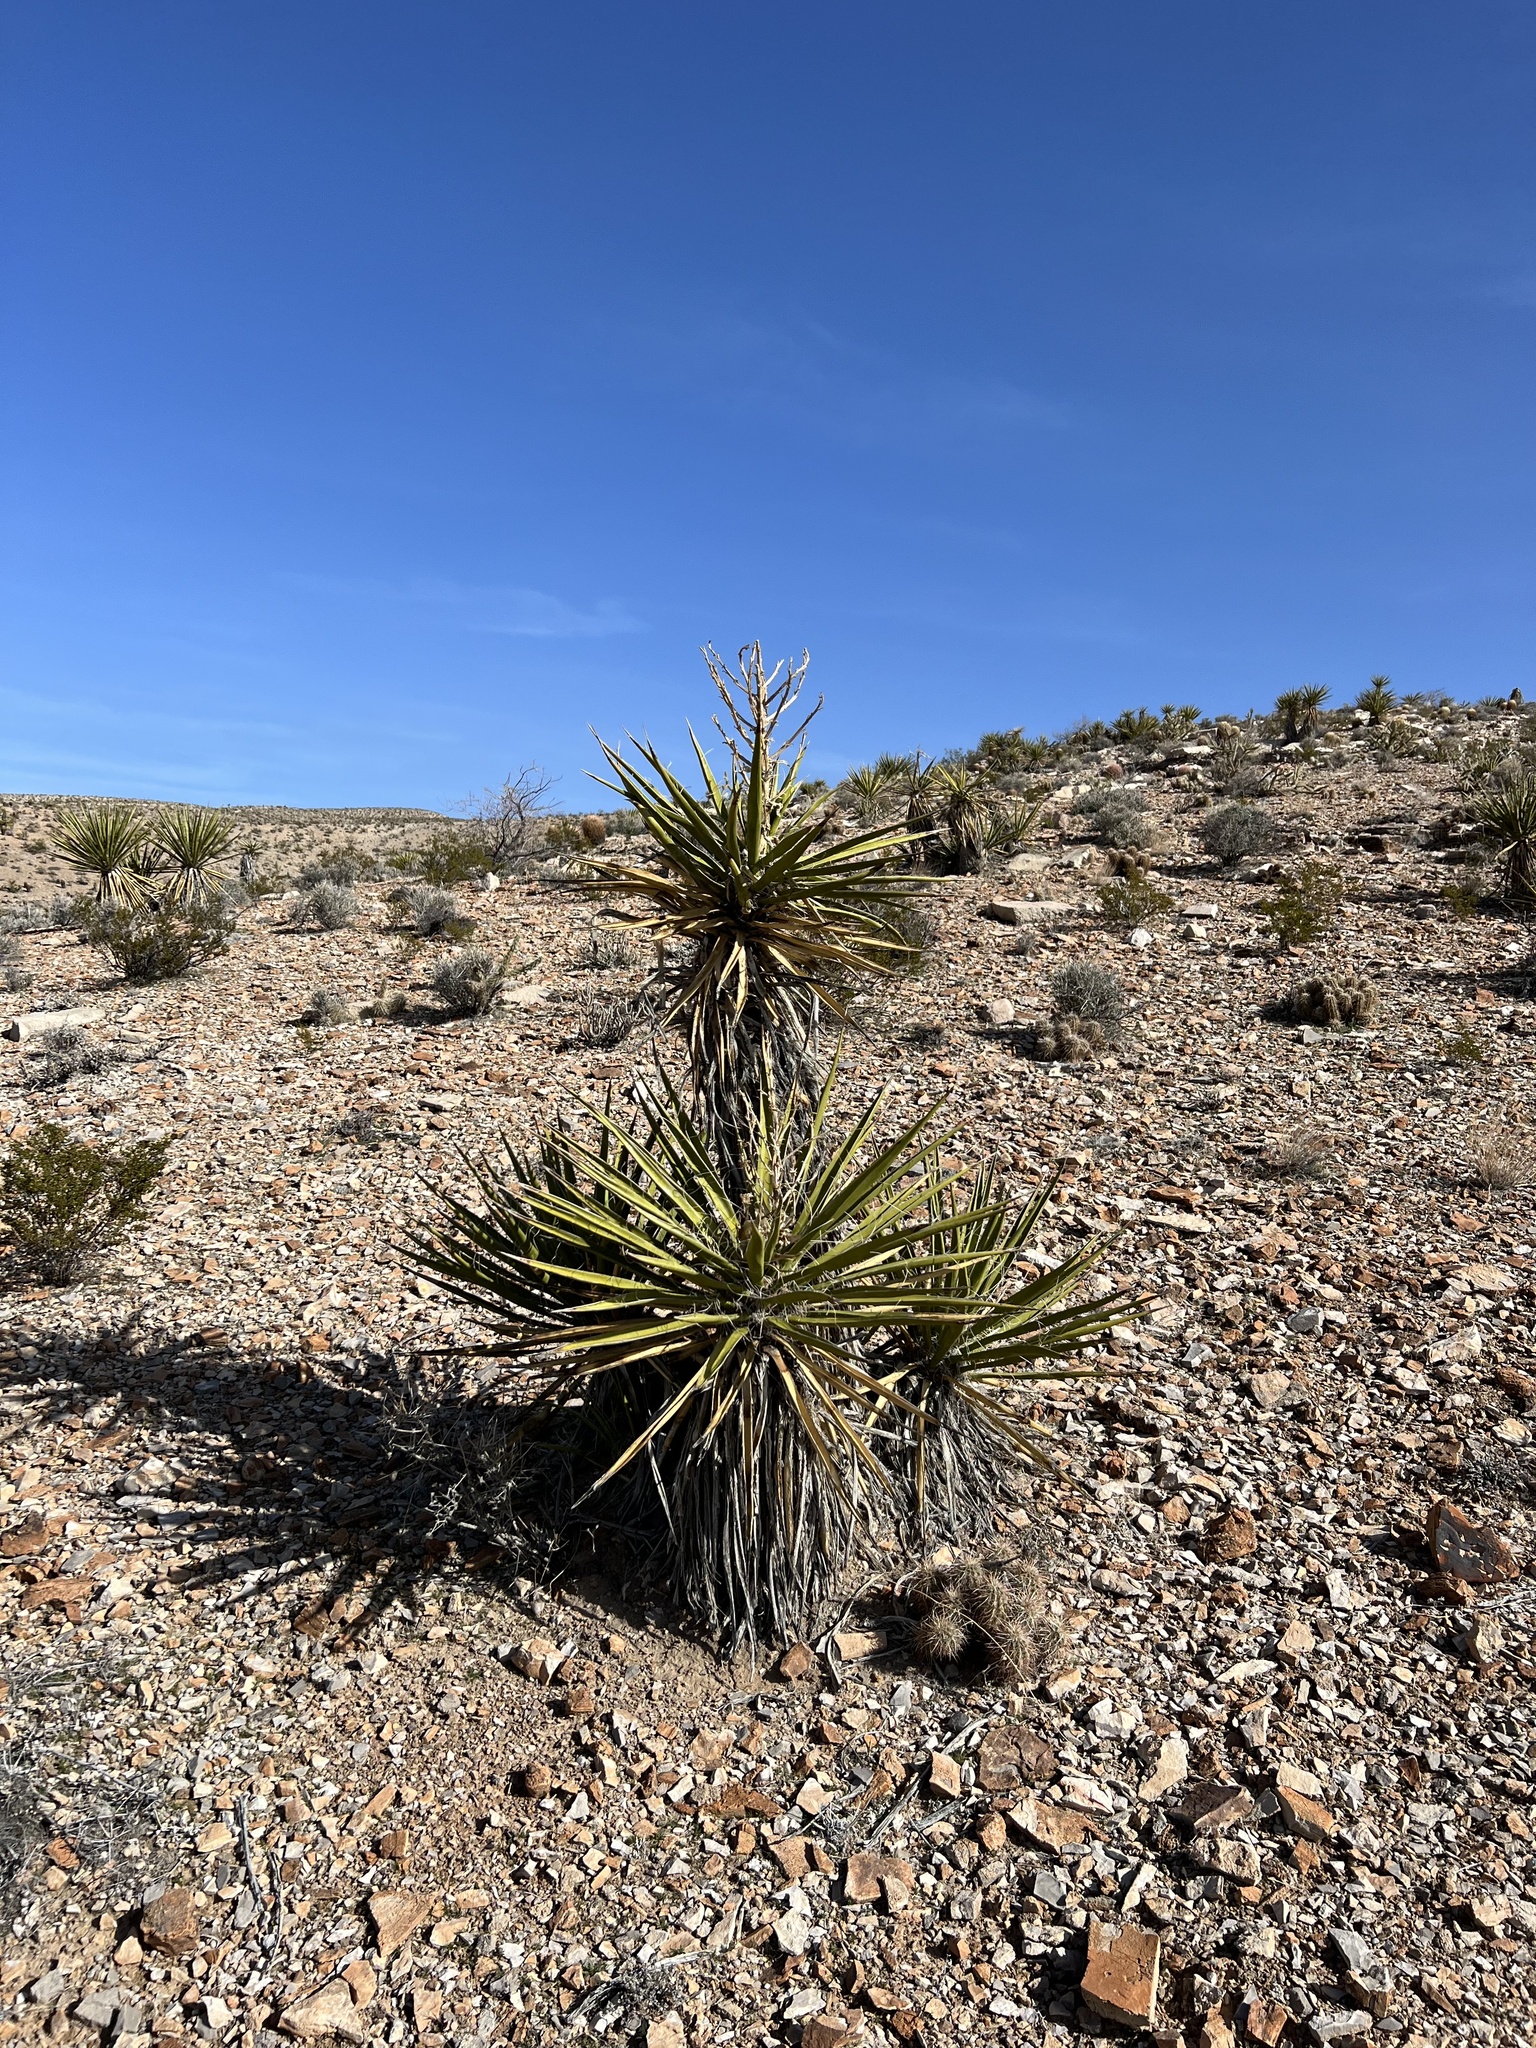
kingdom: Plantae
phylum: Tracheophyta
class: Liliopsida
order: Asparagales
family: Asparagaceae
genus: Yucca
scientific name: Yucca schidigera
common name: Mojave yucca
